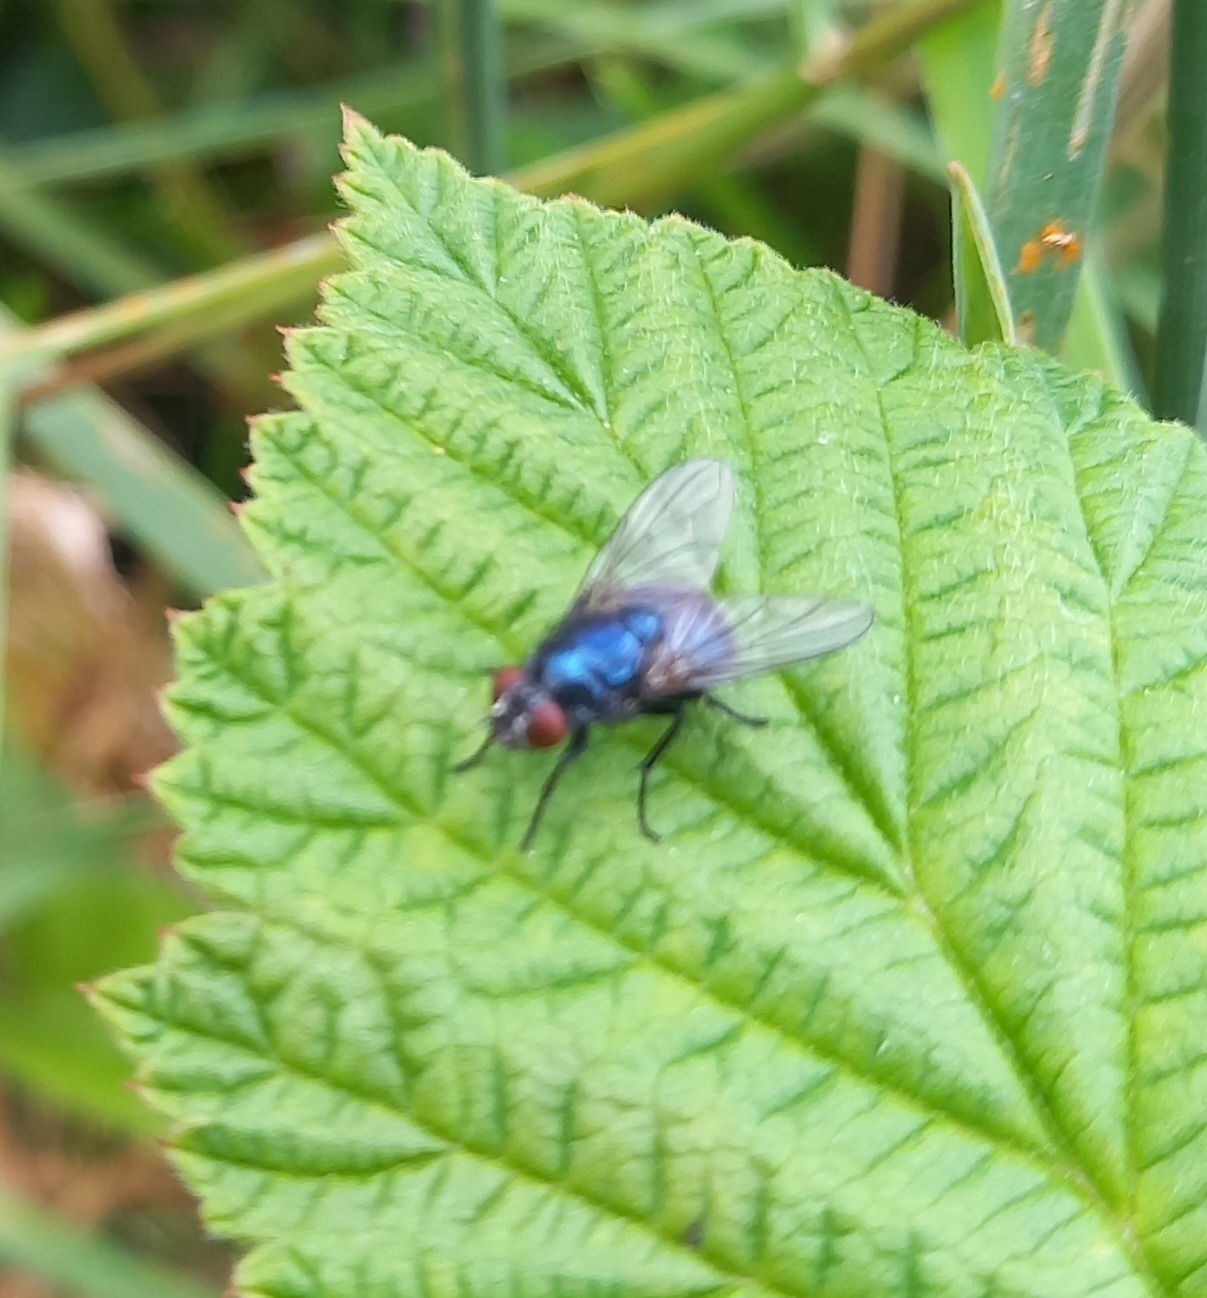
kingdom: Animalia
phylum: Arthropoda
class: Insecta
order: Diptera
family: Muscidae
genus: Eudasyphora
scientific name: Eudasyphora cyanicolor
